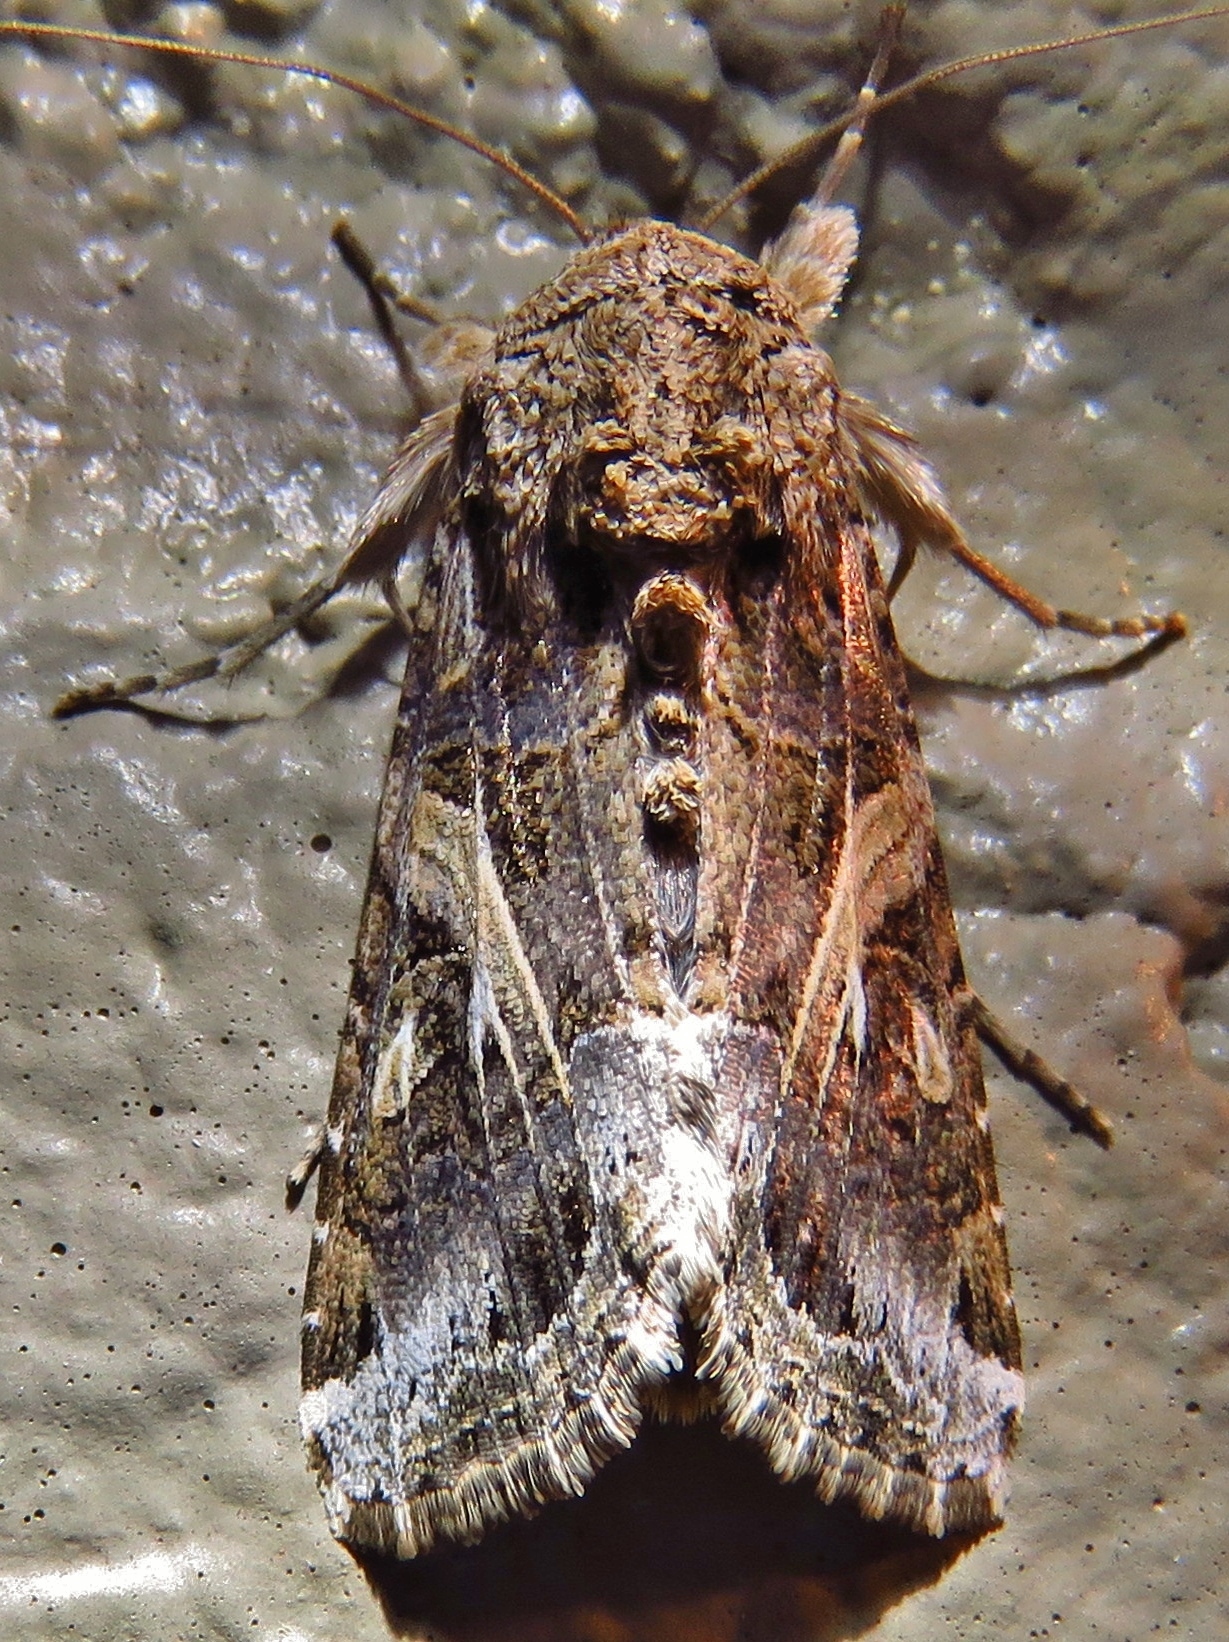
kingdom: Animalia
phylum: Arthropoda
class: Insecta
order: Lepidoptera
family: Noctuidae
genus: Spodoptera
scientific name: Spodoptera ornithogalli
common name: Yellow-striped armyworm
